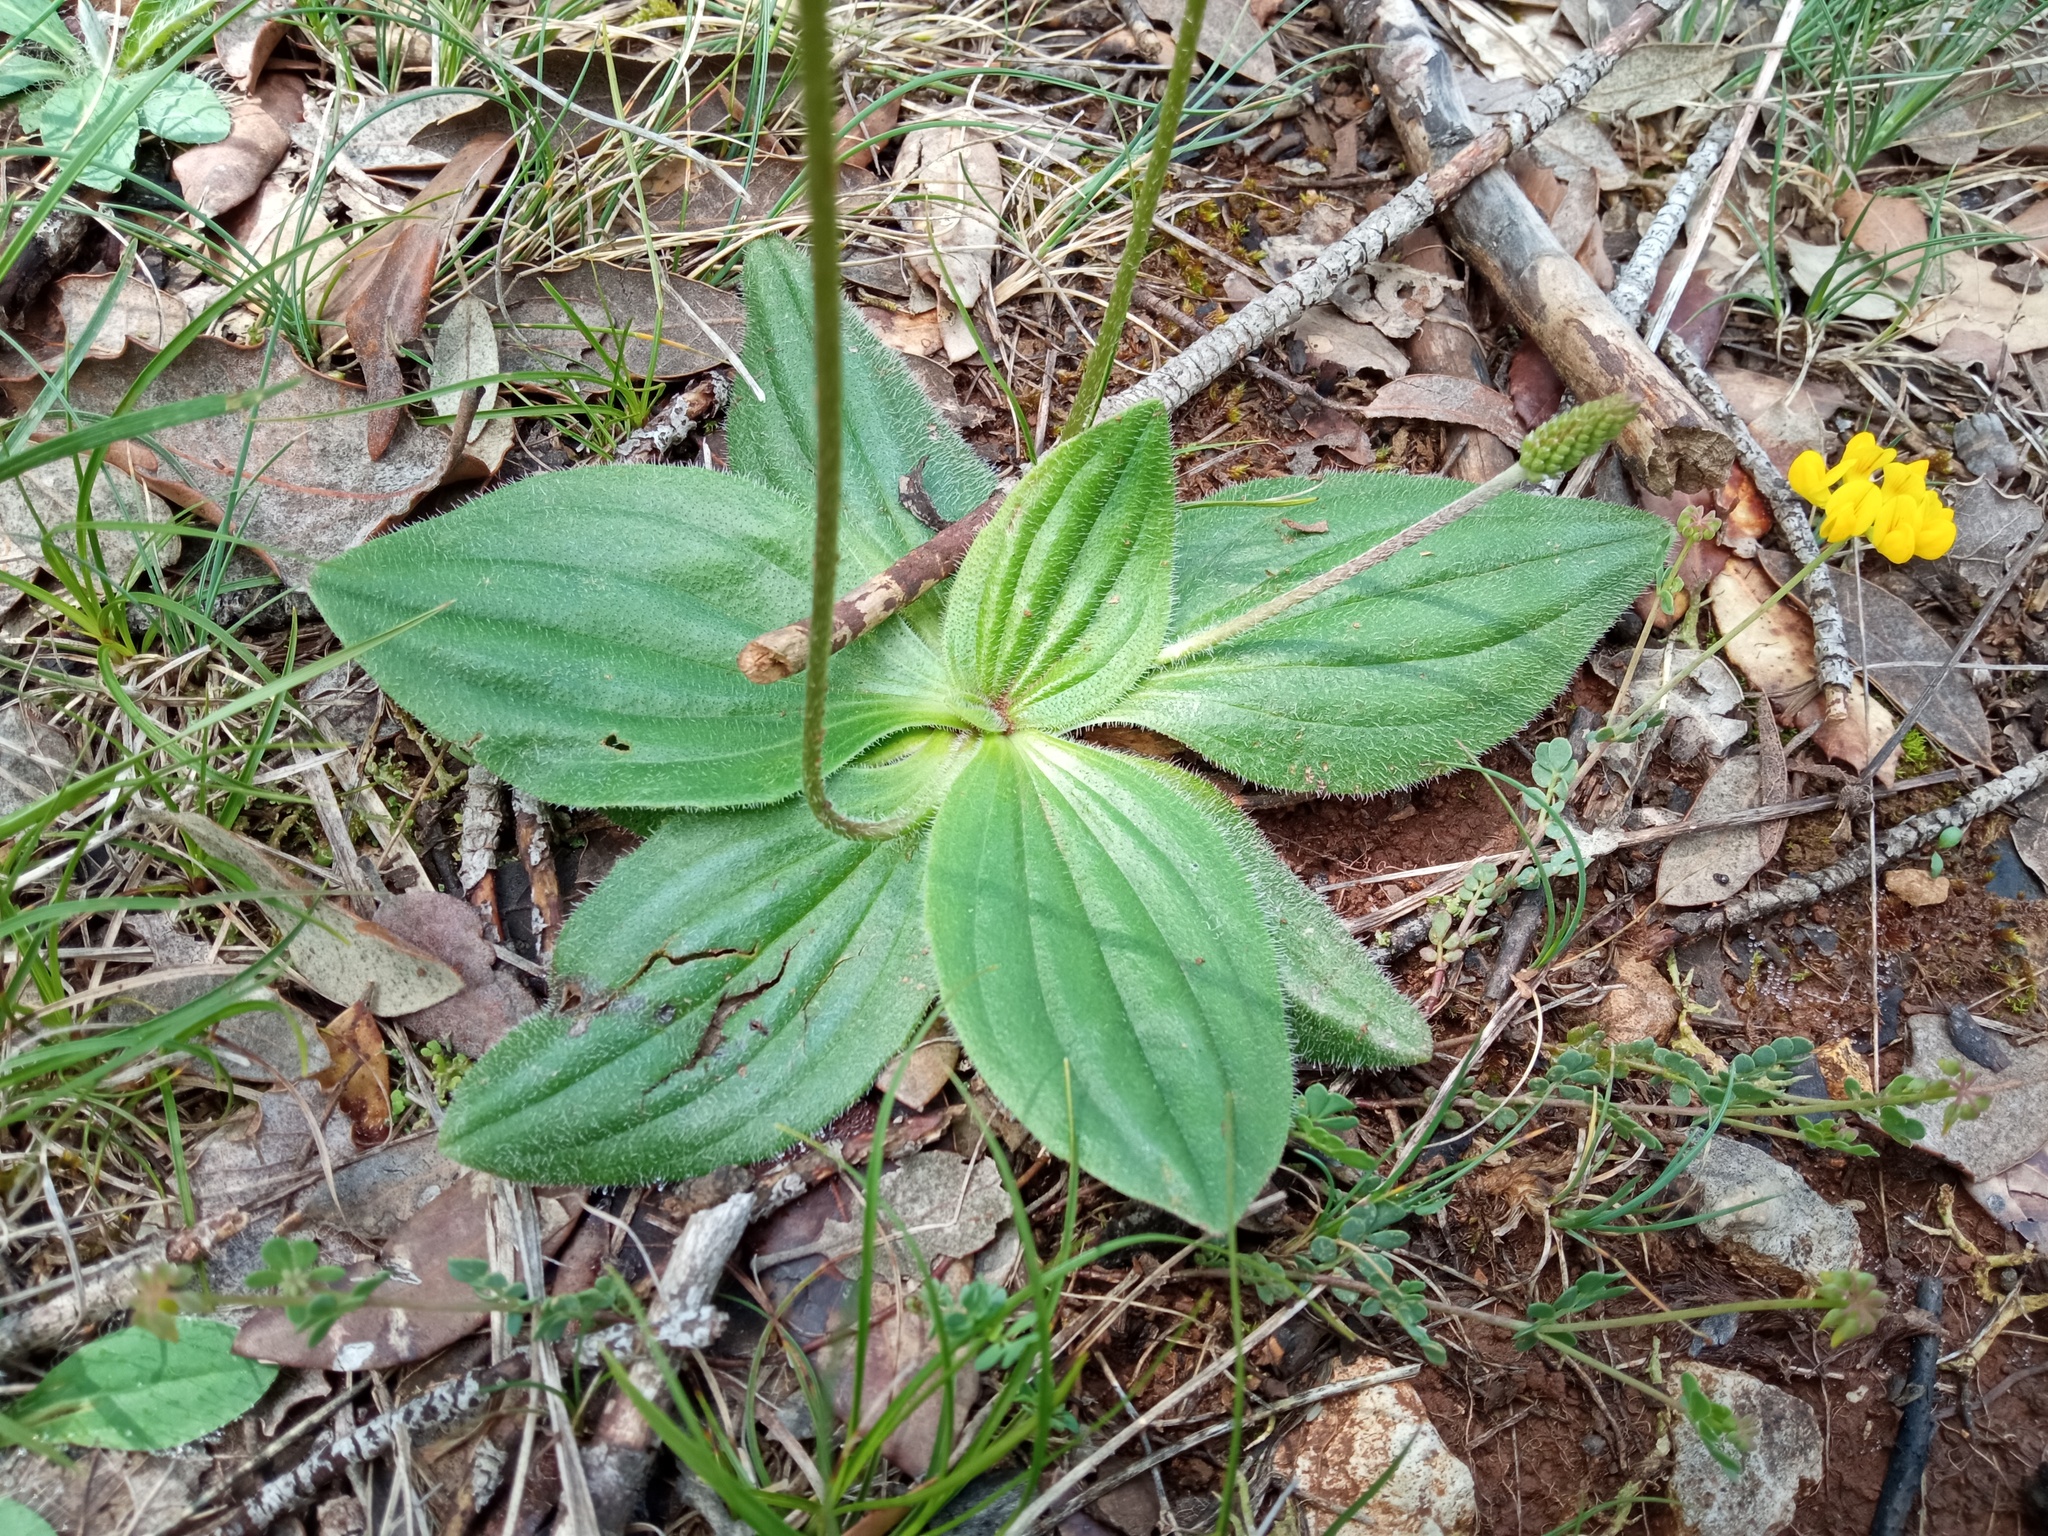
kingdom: Plantae
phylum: Tracheophyta
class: Magnoliopsida
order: Lamiales
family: Plantaginaceae
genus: Plantago
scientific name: Plantago media
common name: Hoary plantain
